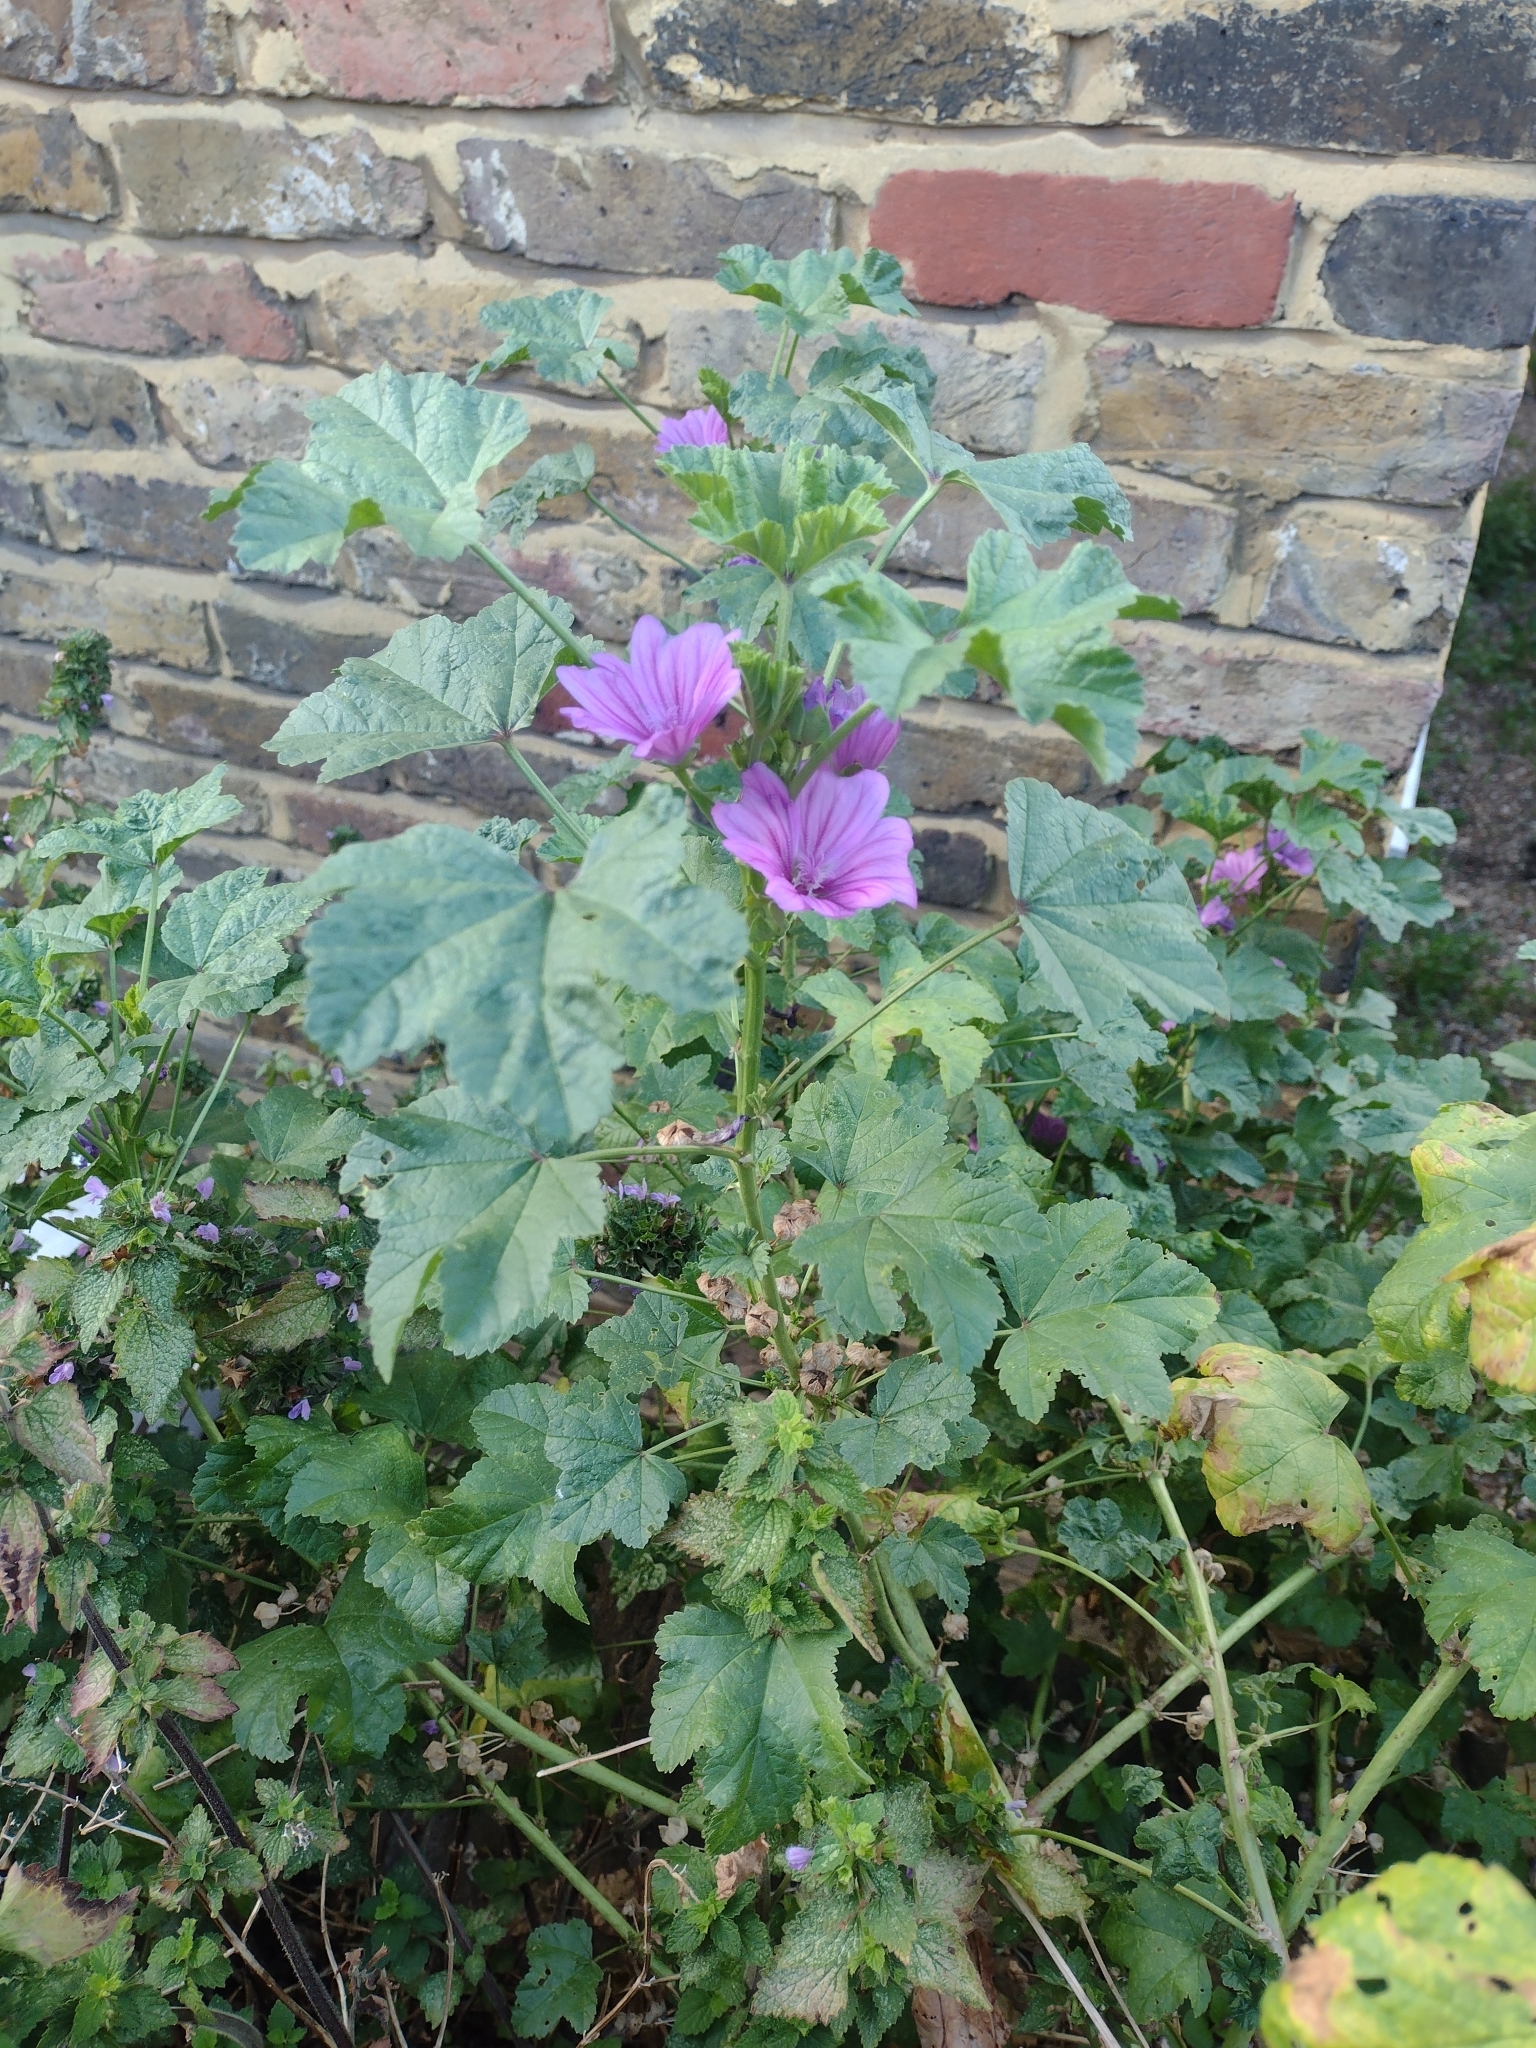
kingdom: Plantae
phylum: Tracheophyta
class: Magnoliopsida
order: Malvales
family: Malvaceae
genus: Malva
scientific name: Malva sylvestris
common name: Common mallow
